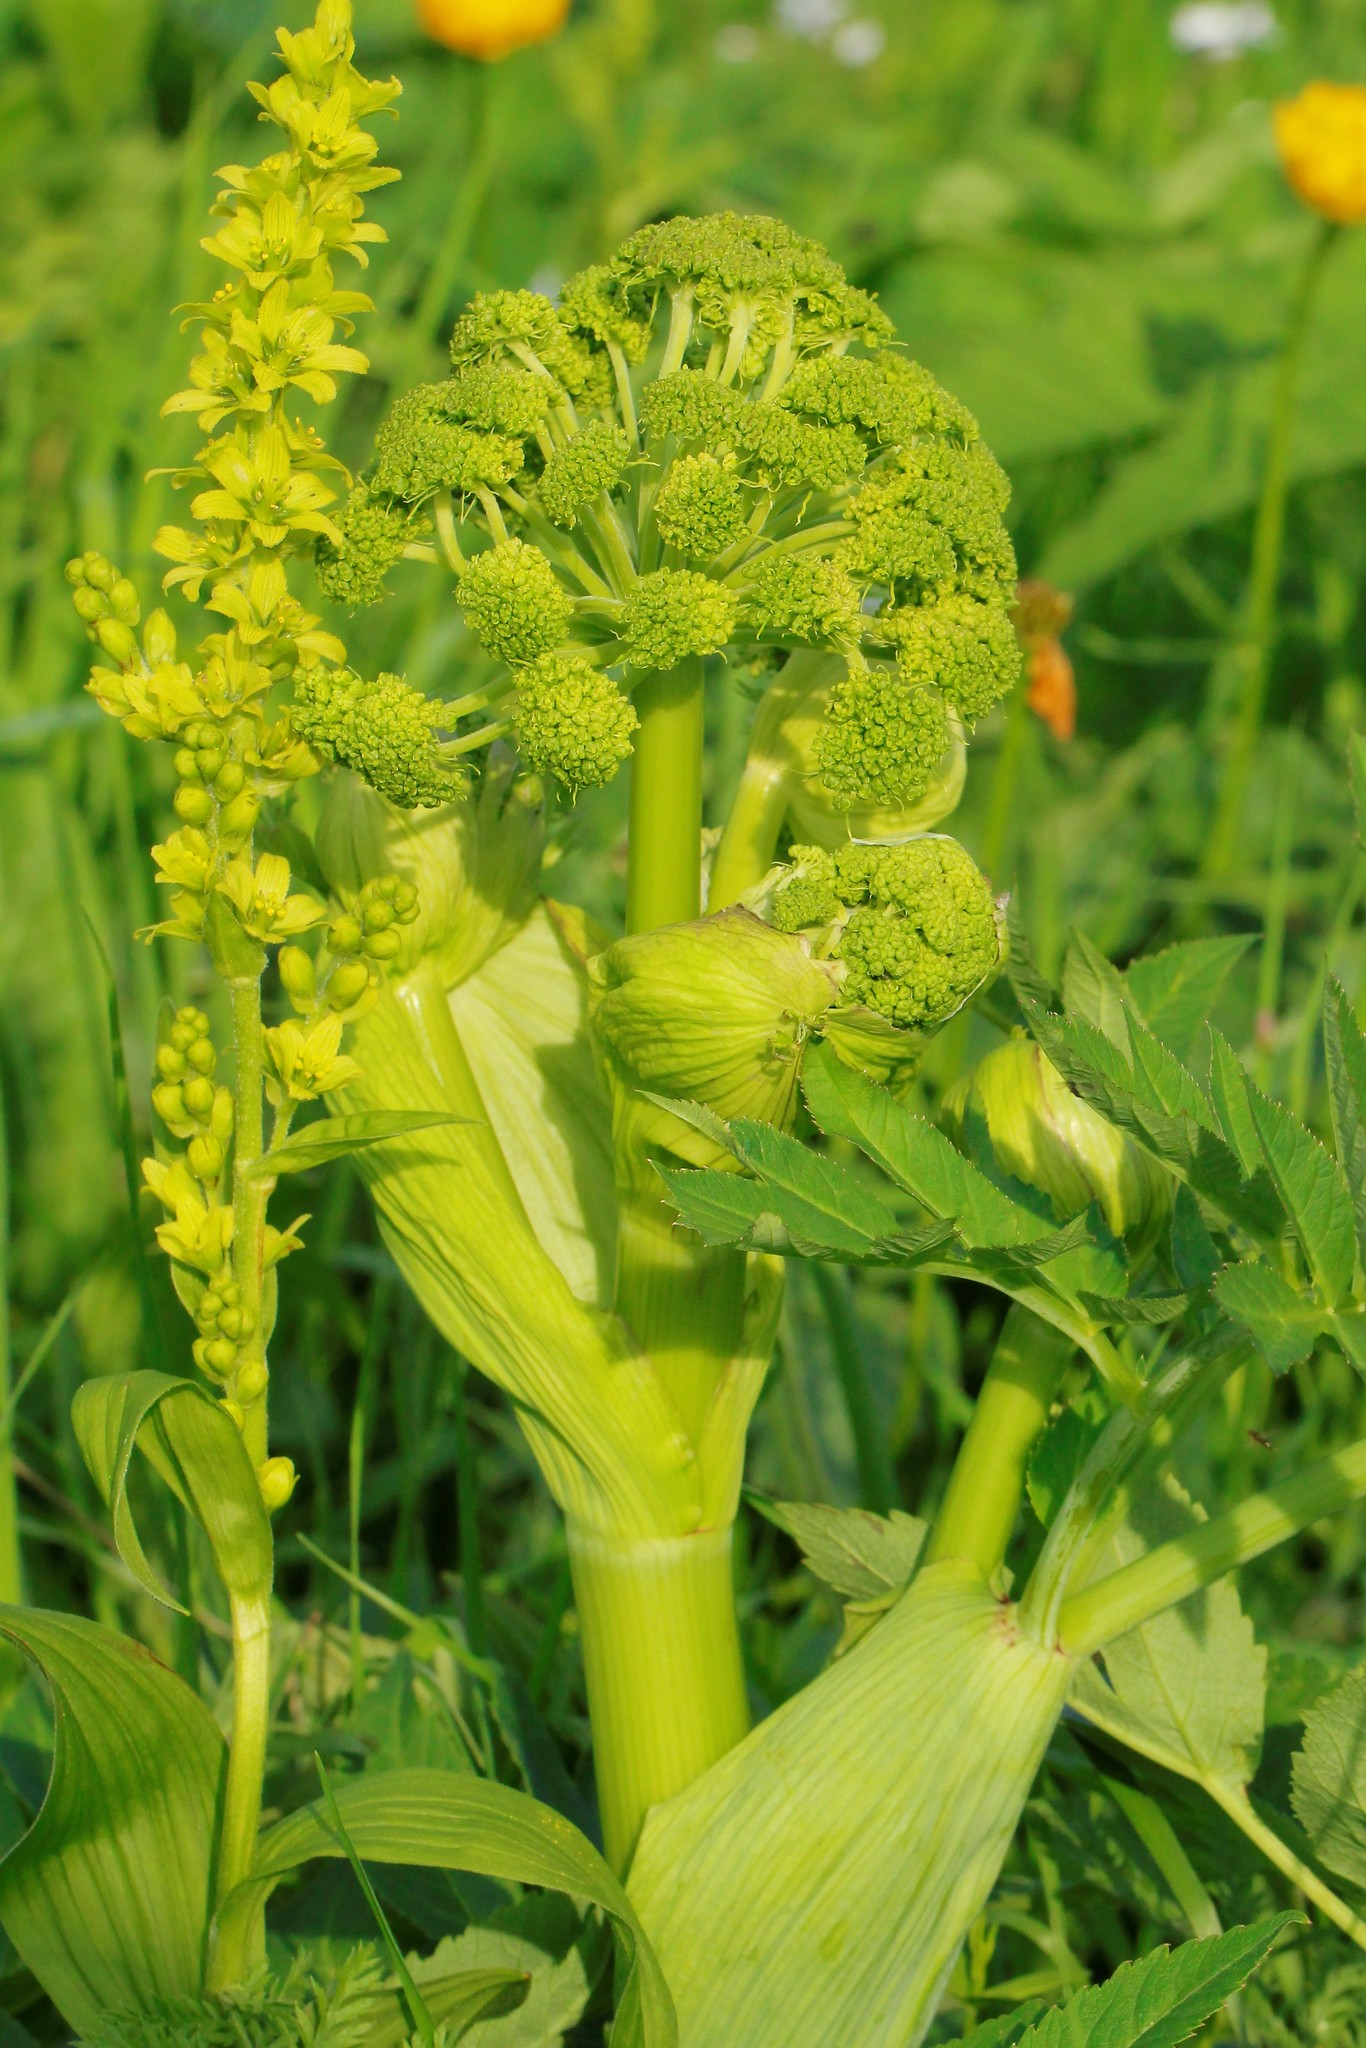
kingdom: Plantae
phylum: Tracheophyta
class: Magnoliopsida
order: Apiales
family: Apiaceae
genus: Angelica
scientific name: Angelica archangelica
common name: Garden angelica
